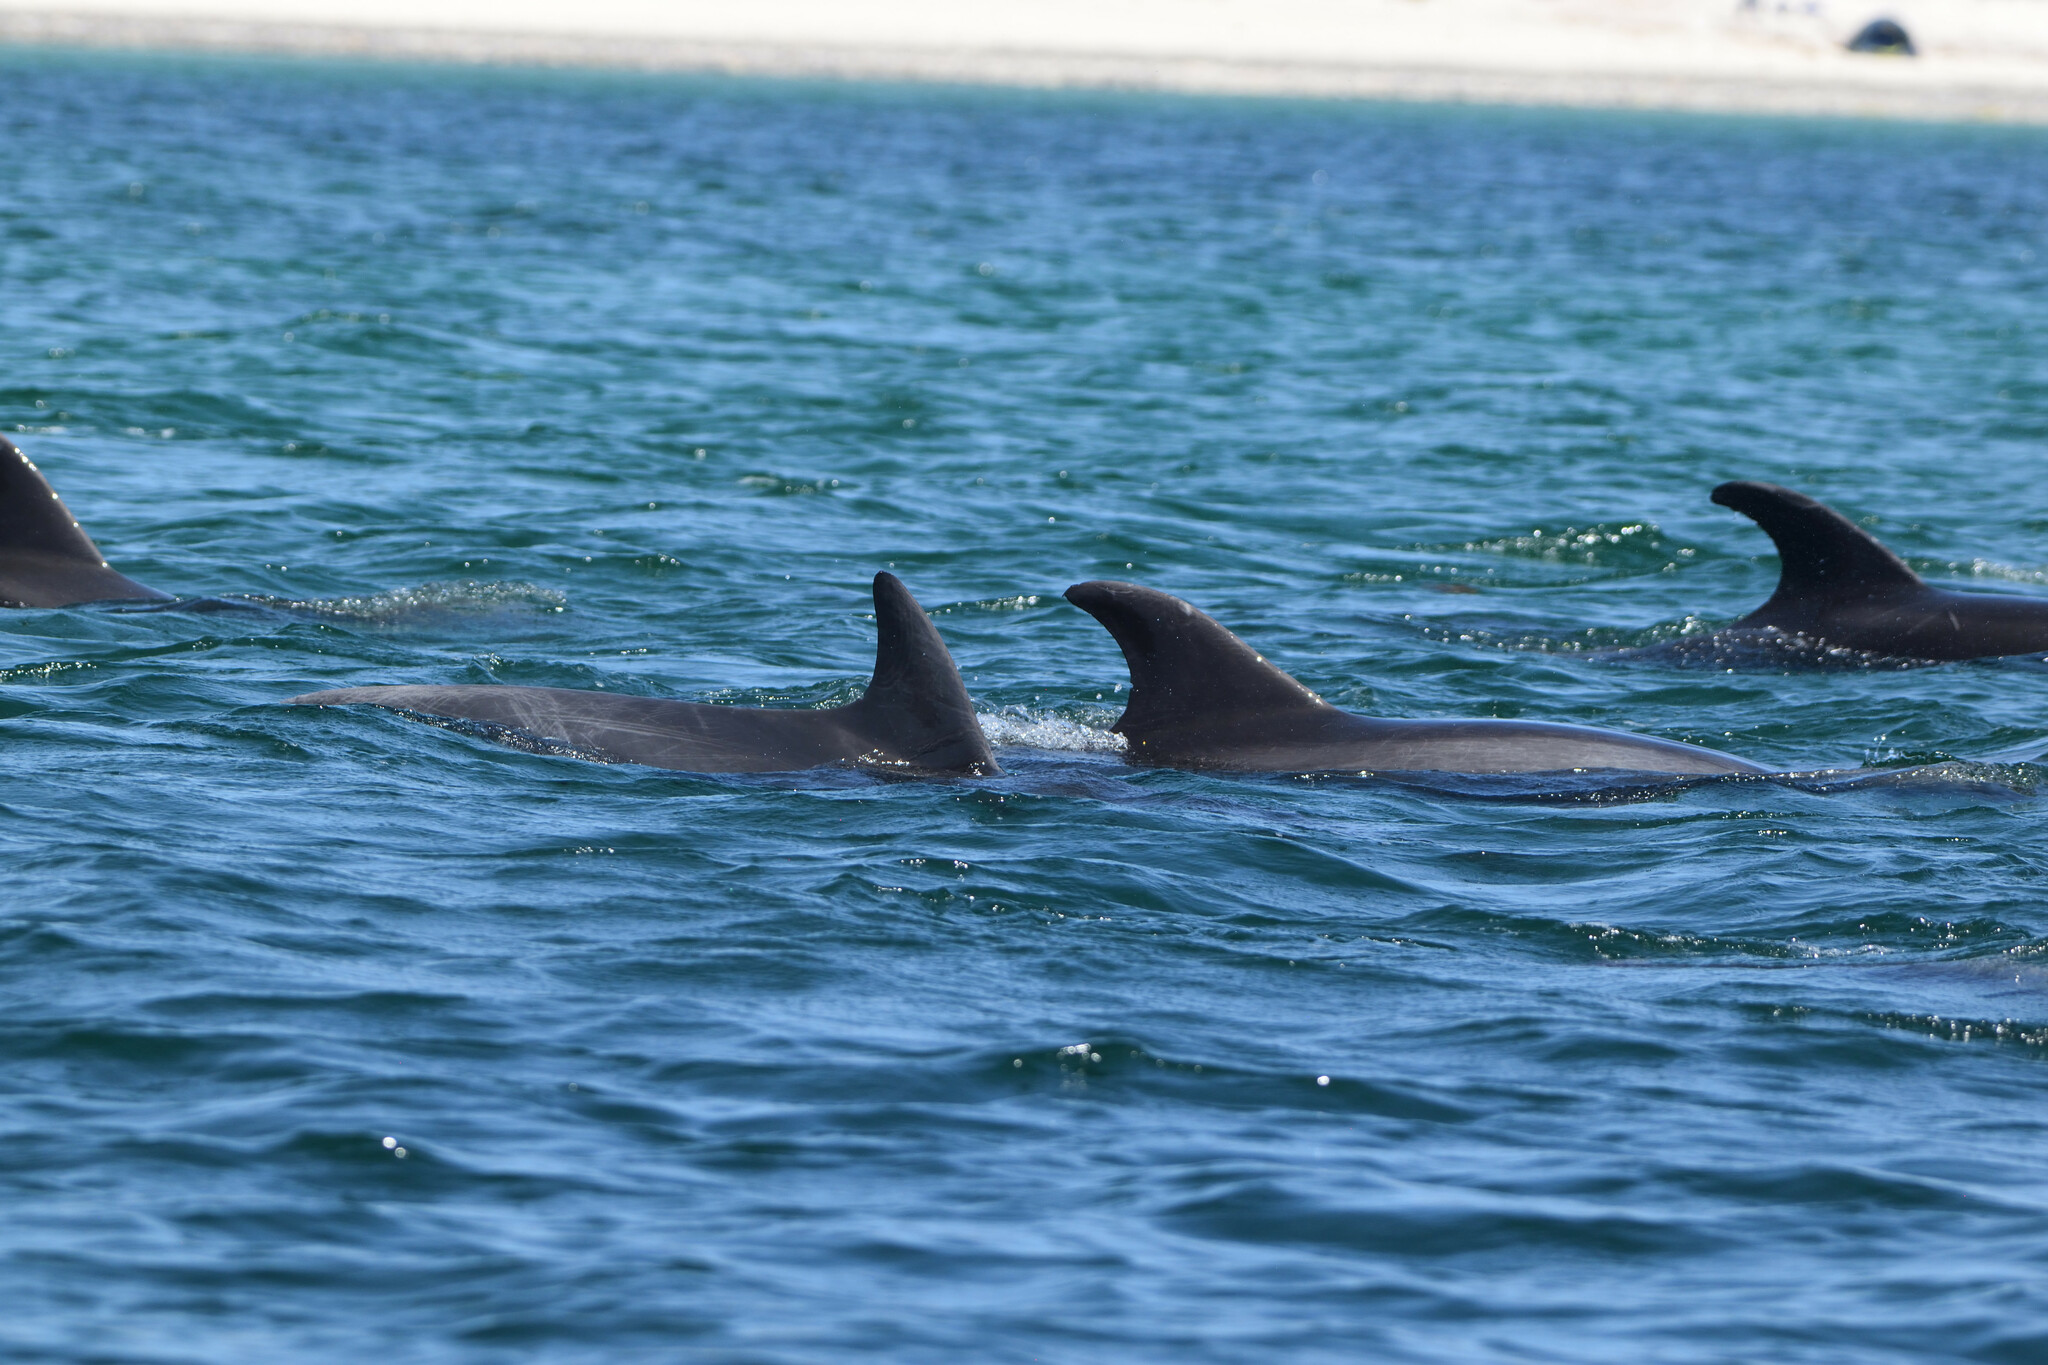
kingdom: Animalia
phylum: Chordata
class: Mammalia
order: Cetacea
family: Delphinidae
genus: Tursiops
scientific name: Tursiops truncatus
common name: Bottlenose dolphin
